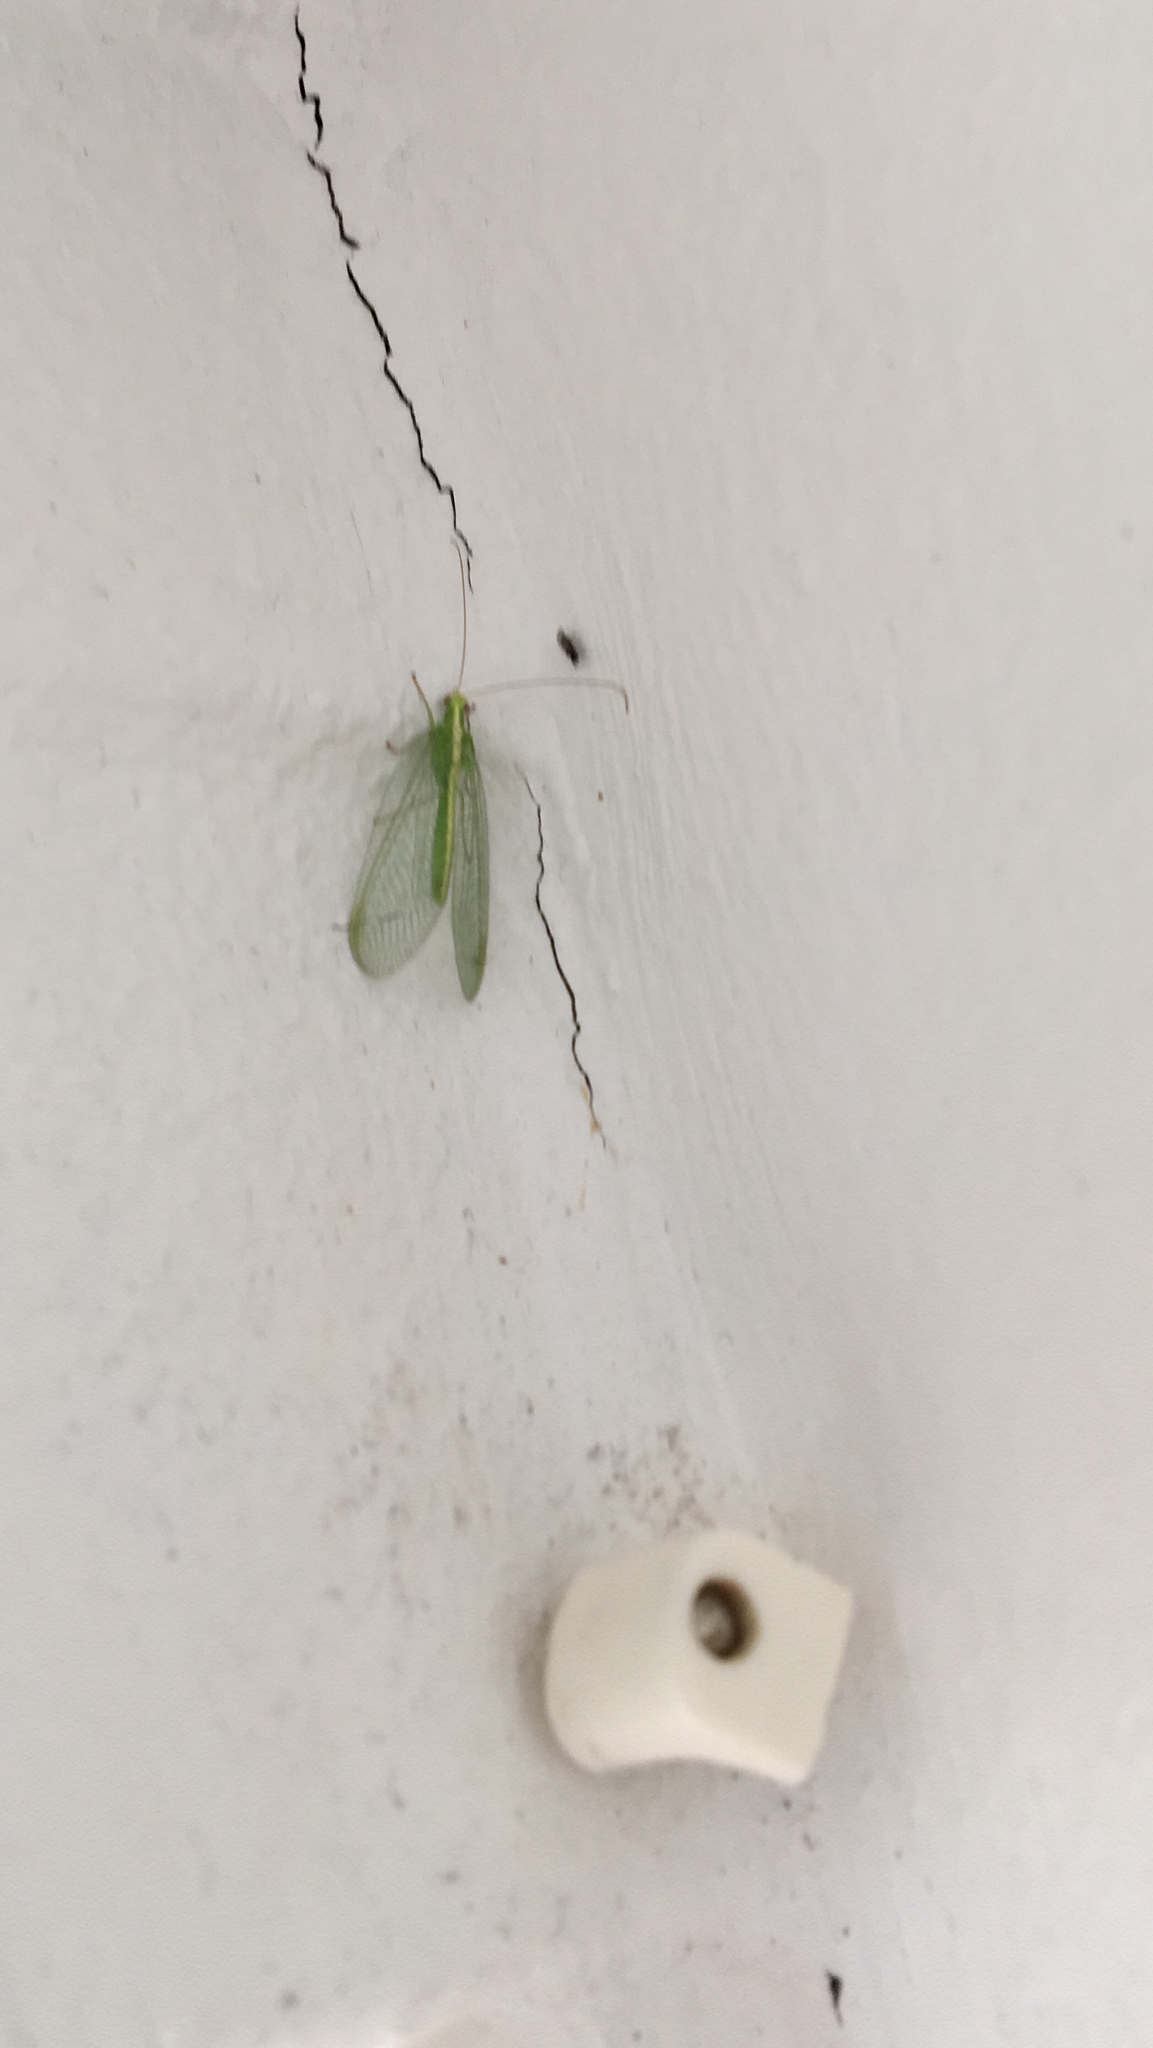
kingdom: Animalia
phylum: Arthropoda
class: Insecta
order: Neuroptera
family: Chrysopidae
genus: Chrysoperla
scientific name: Chrysoperla
